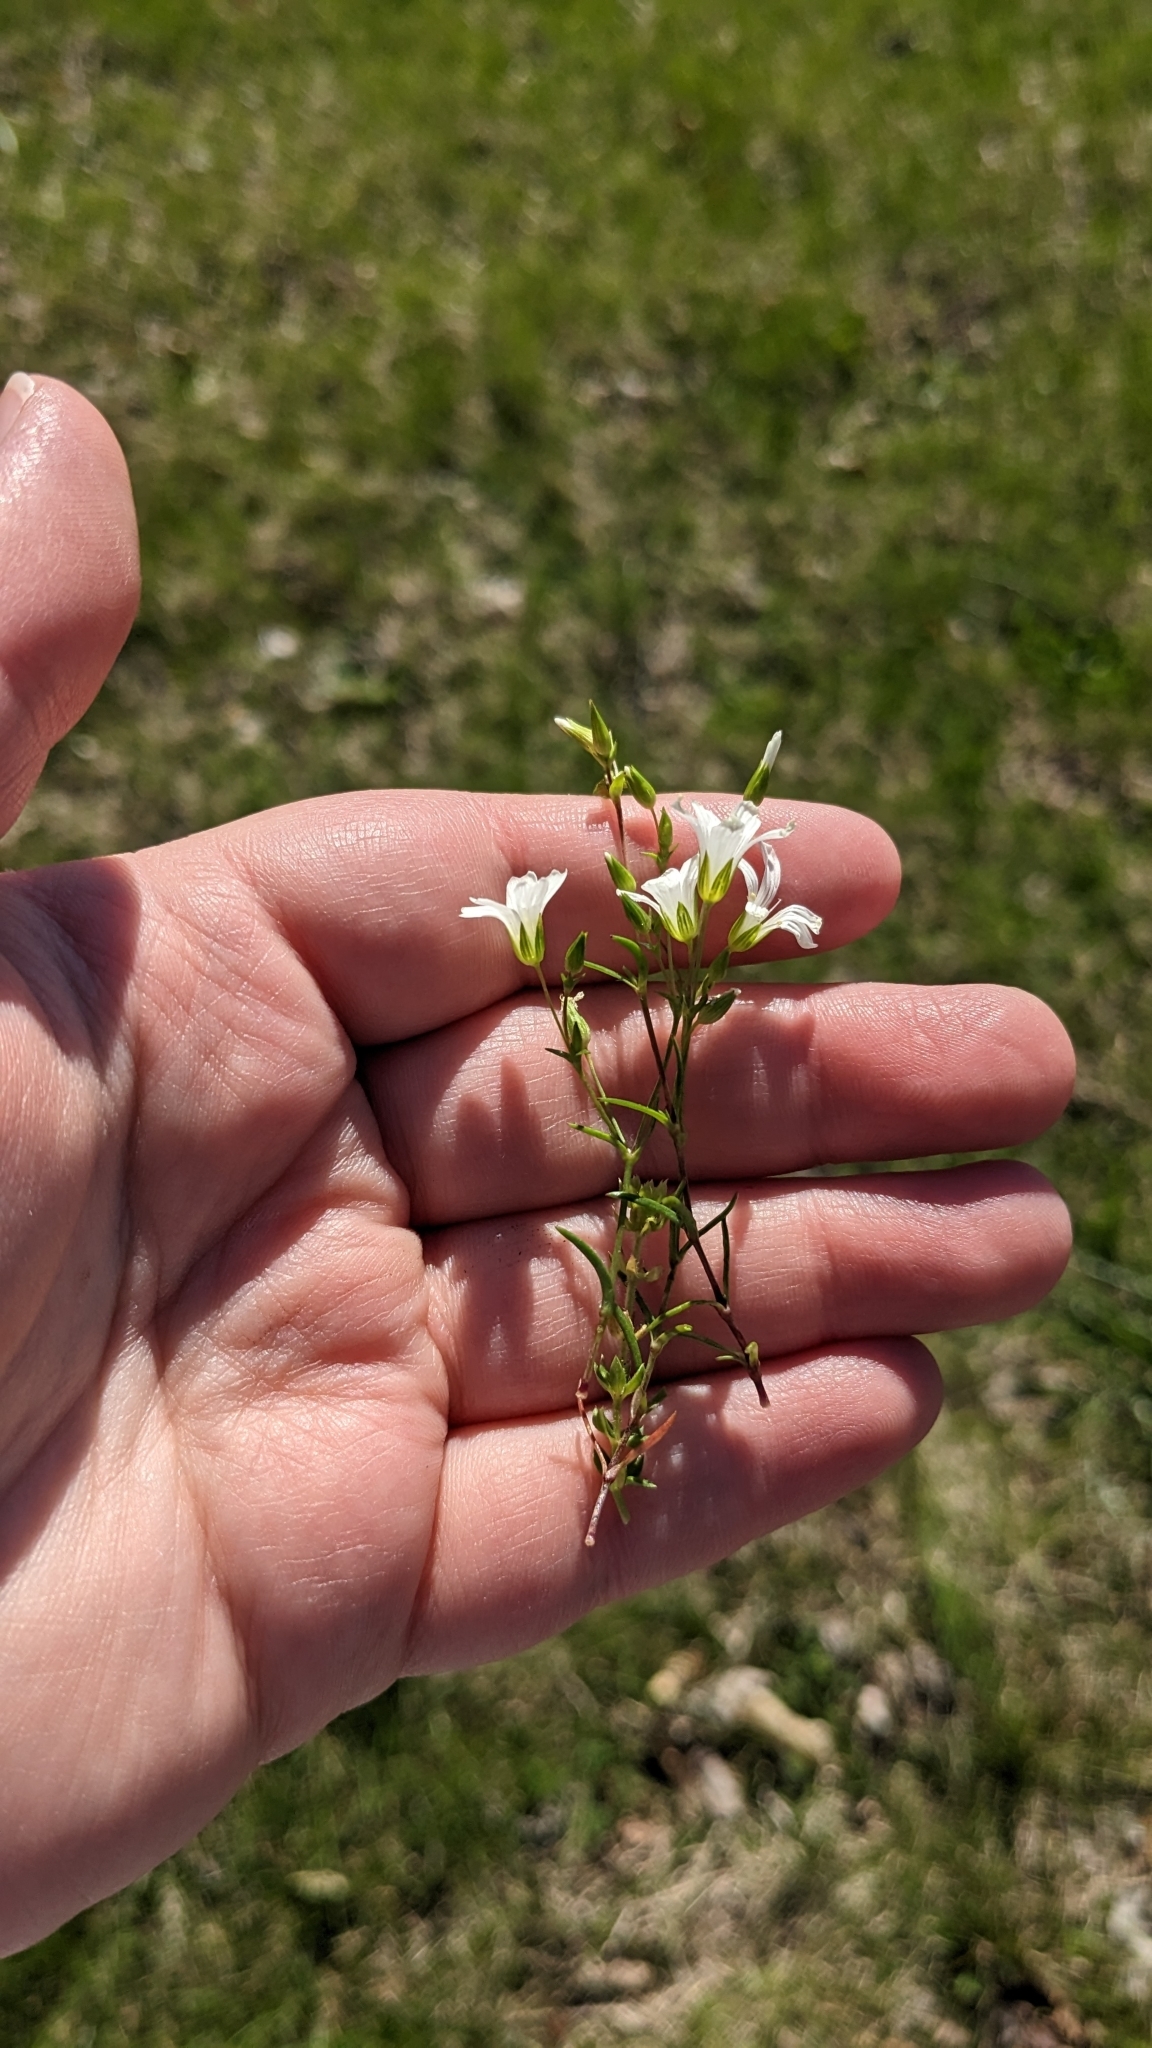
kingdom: Plantae
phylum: Tracheophyta
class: Magnoliopsida
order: Caryophyllales
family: Caryophyllaceae
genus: Mononeuria
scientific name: Mononeuria patula
